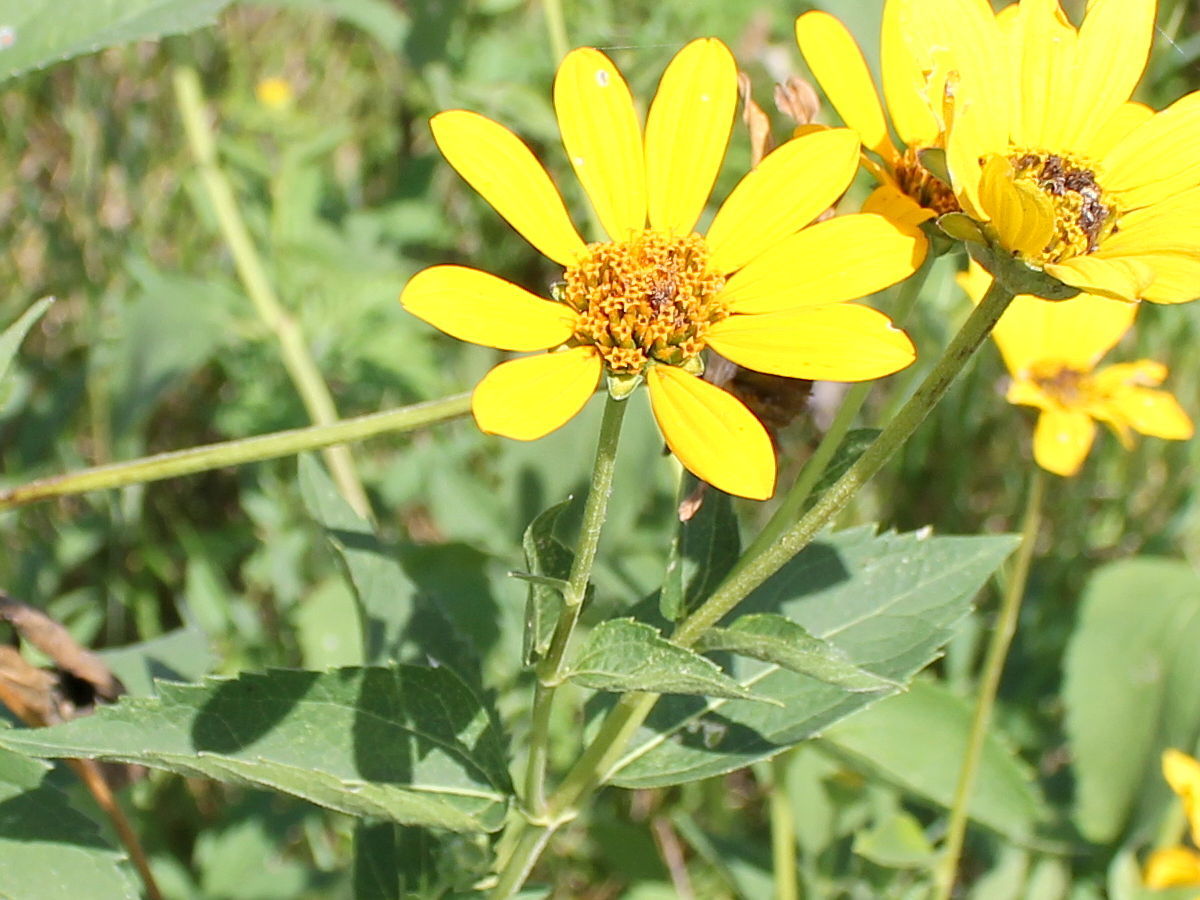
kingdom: Plantae
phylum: Tracheophyta
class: Magnoliopsida
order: Asterales
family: Asteraceae
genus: Heliopsis
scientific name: Heliopsis helianthoides
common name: False sunflower
